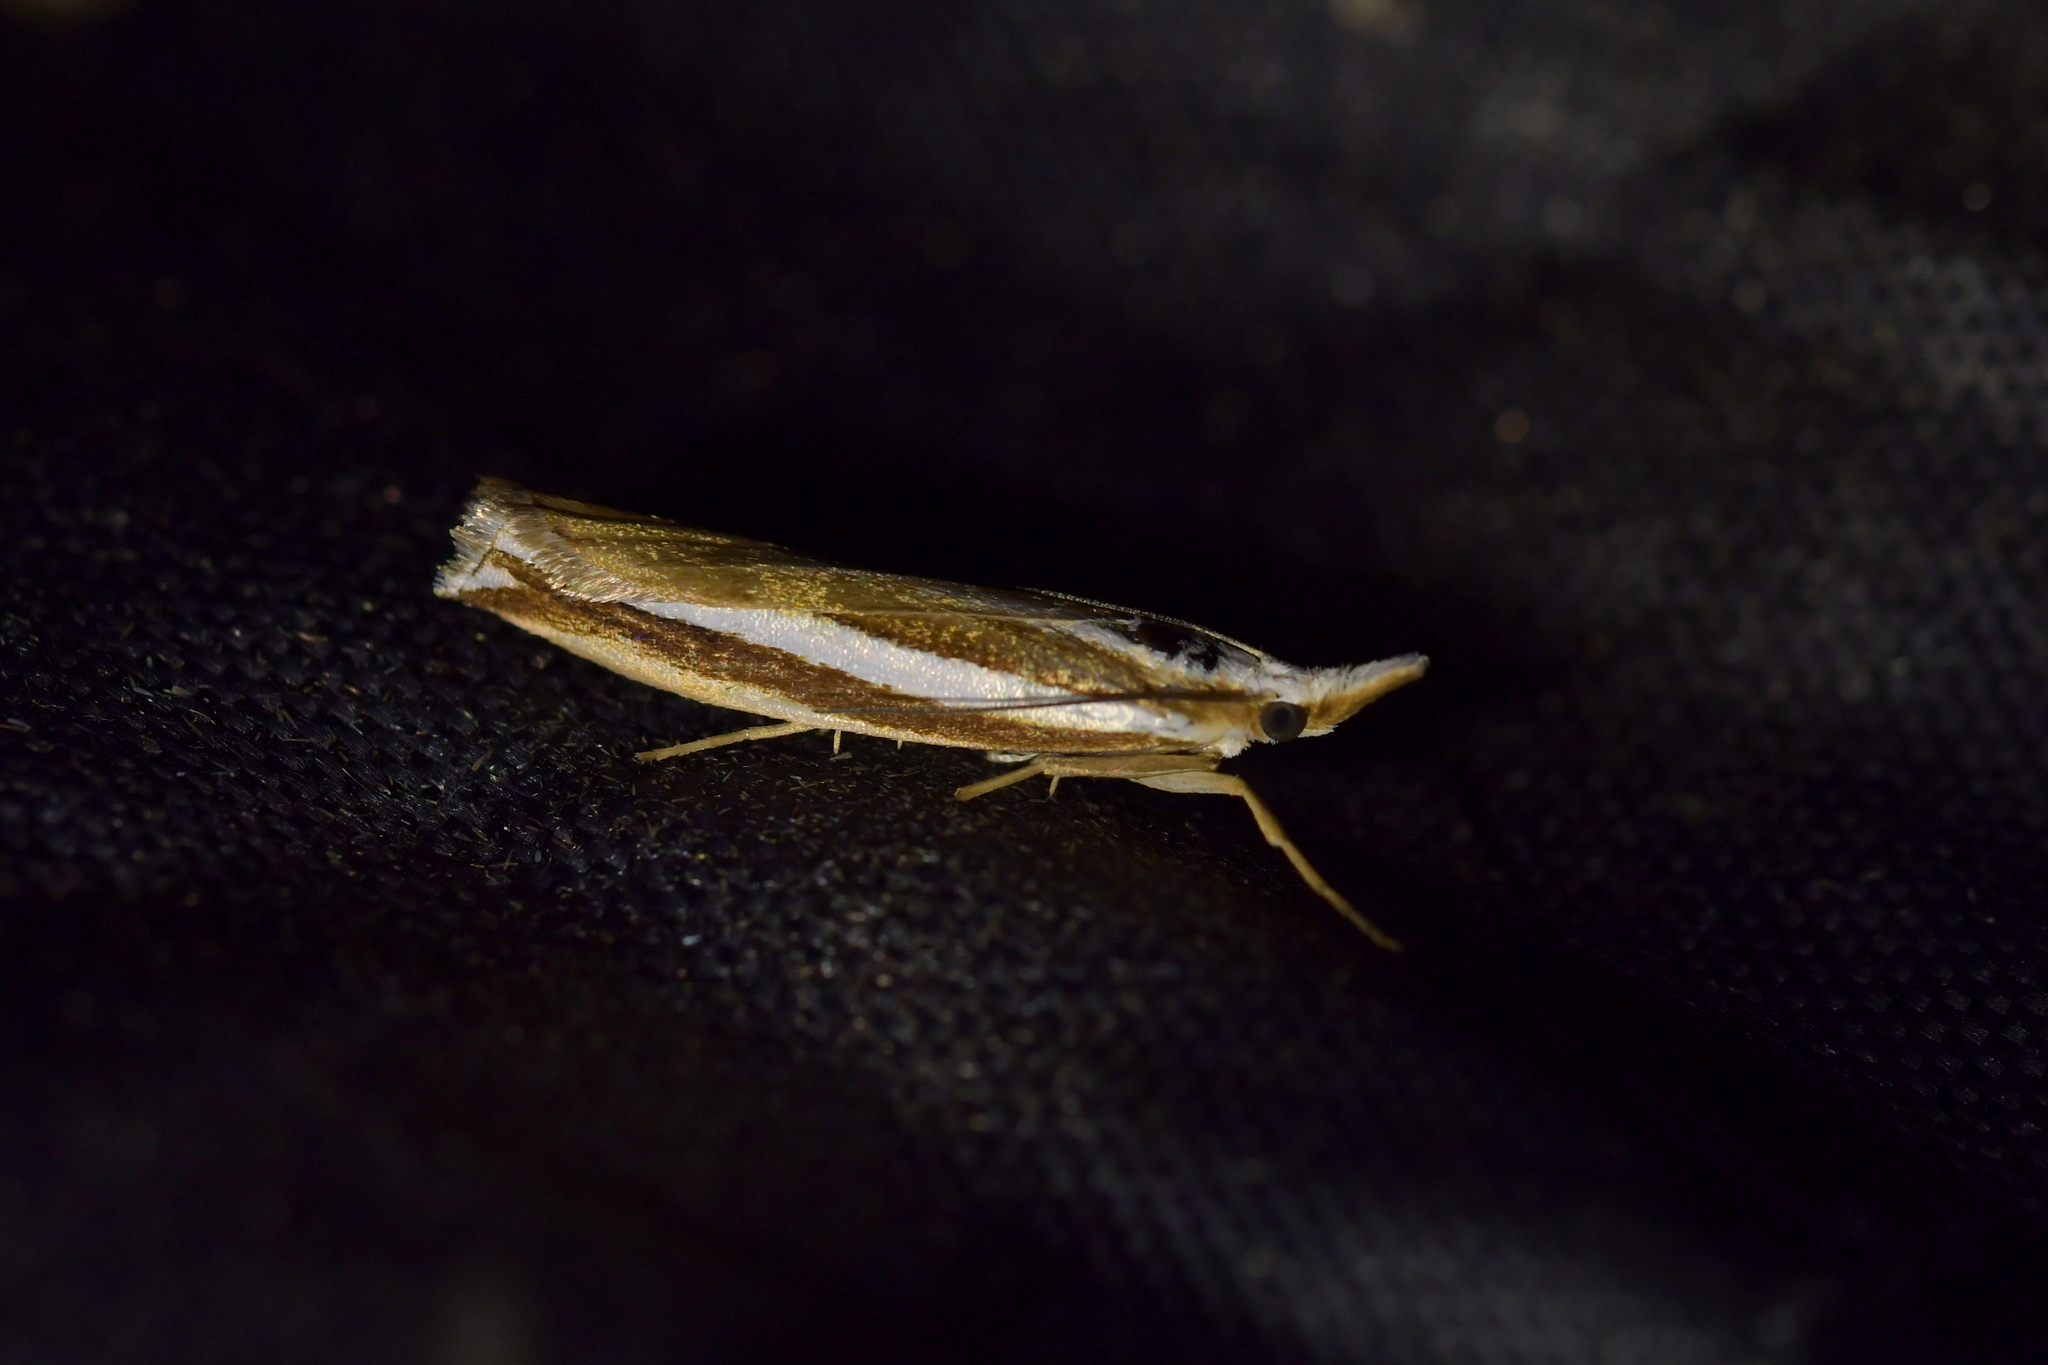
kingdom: Animalia
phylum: Arthropoda
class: Insecta
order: Lepidoptera
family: Crambidae
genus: Orocrambus
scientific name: Orocrambus apicellus
